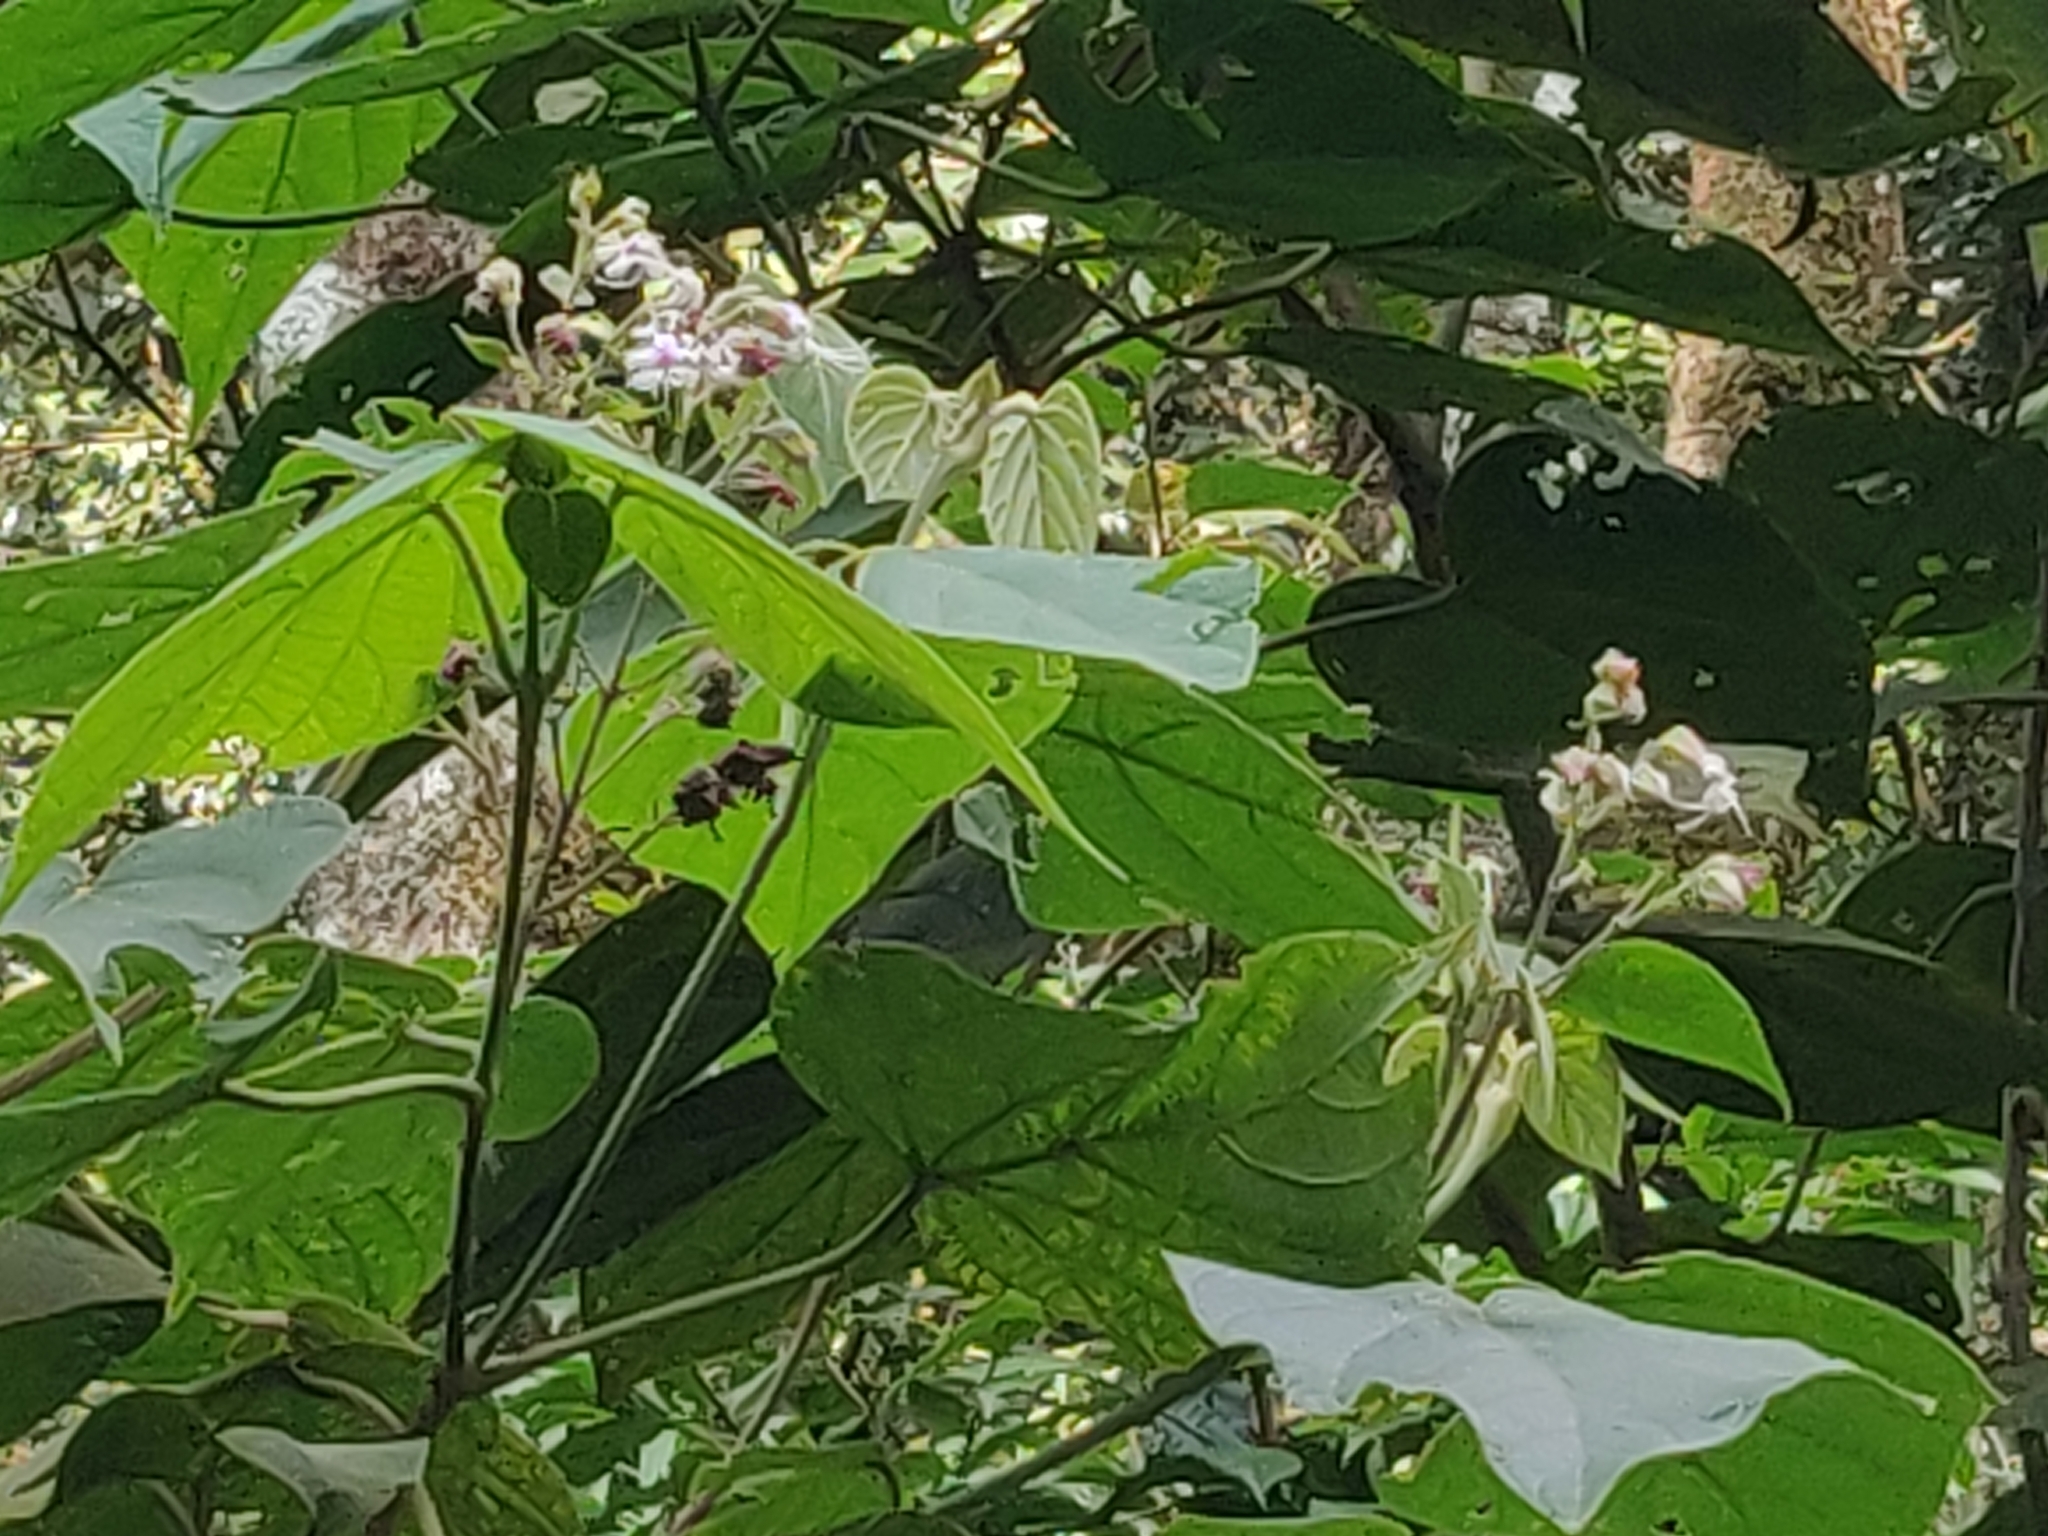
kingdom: Plantae
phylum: Tracheophyta
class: Magnoliopsida
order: Lamiales
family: Lamiaceae
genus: Clerodendrum
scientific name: Clerodendrum infortunatum
